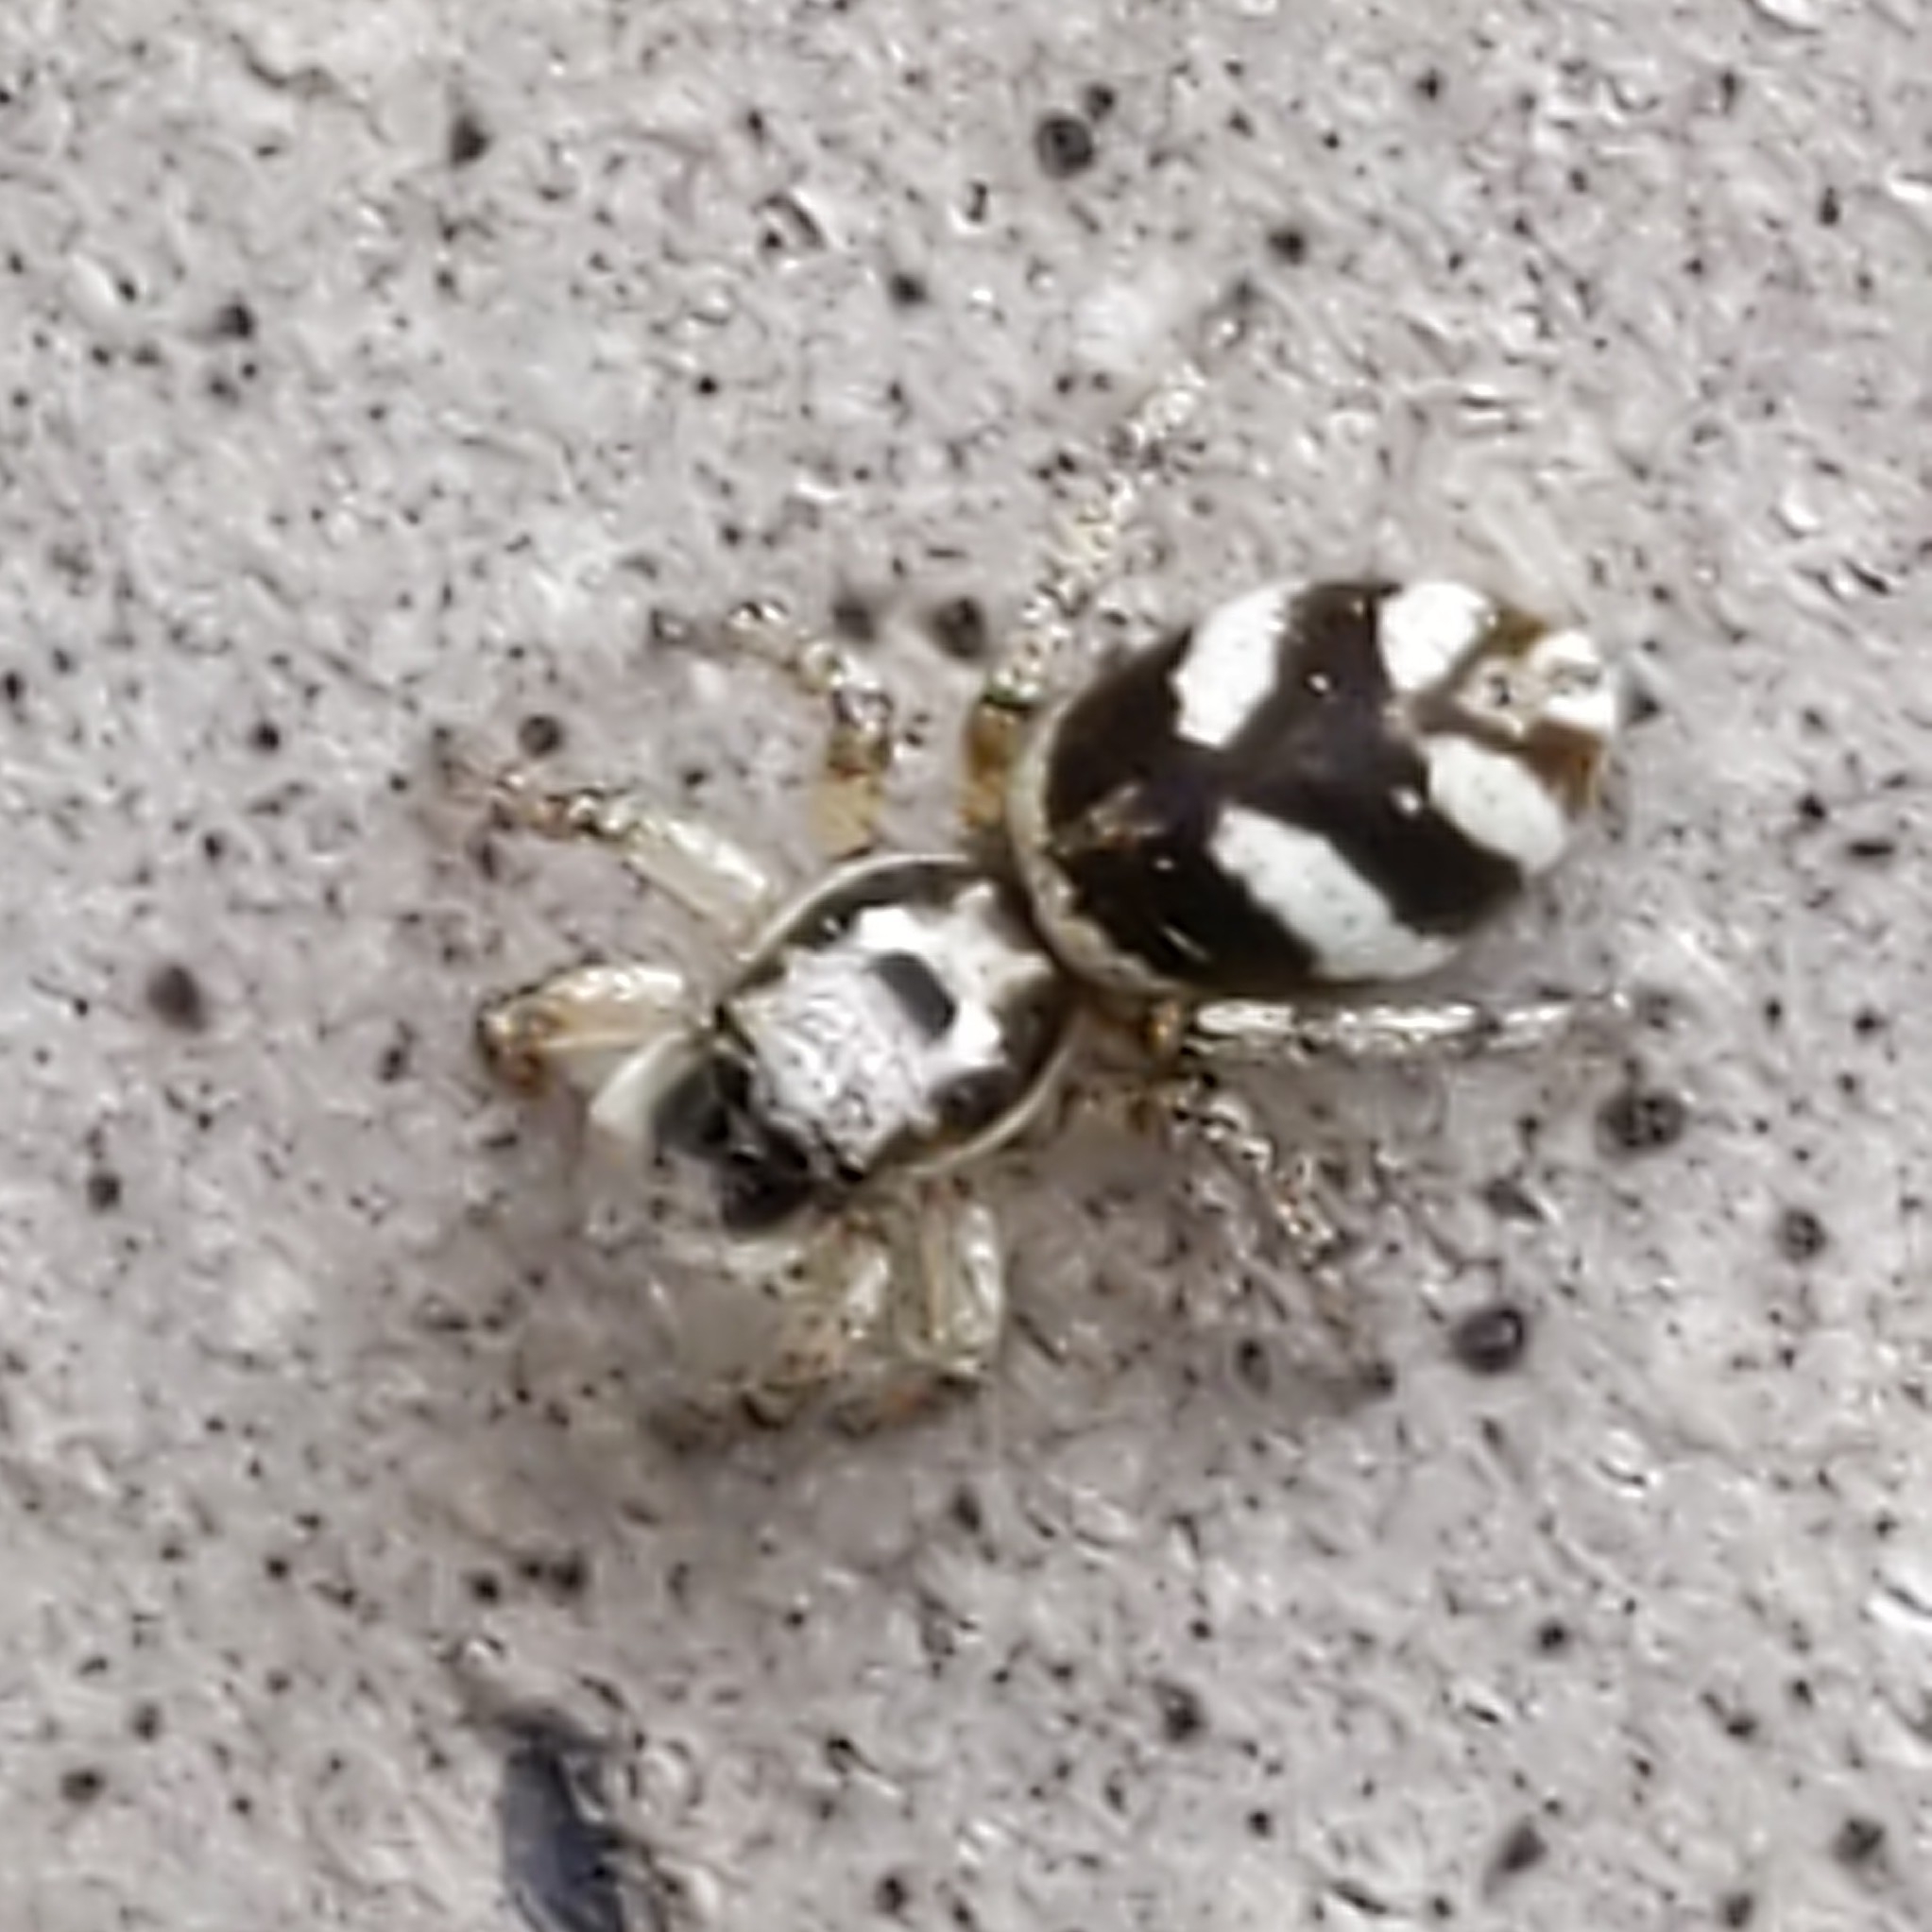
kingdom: Animalia
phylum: Arthropoda
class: Arachnida
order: Araneae
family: Salticidae
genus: Salticus
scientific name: Salticus scenicus
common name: Zebra jumper
